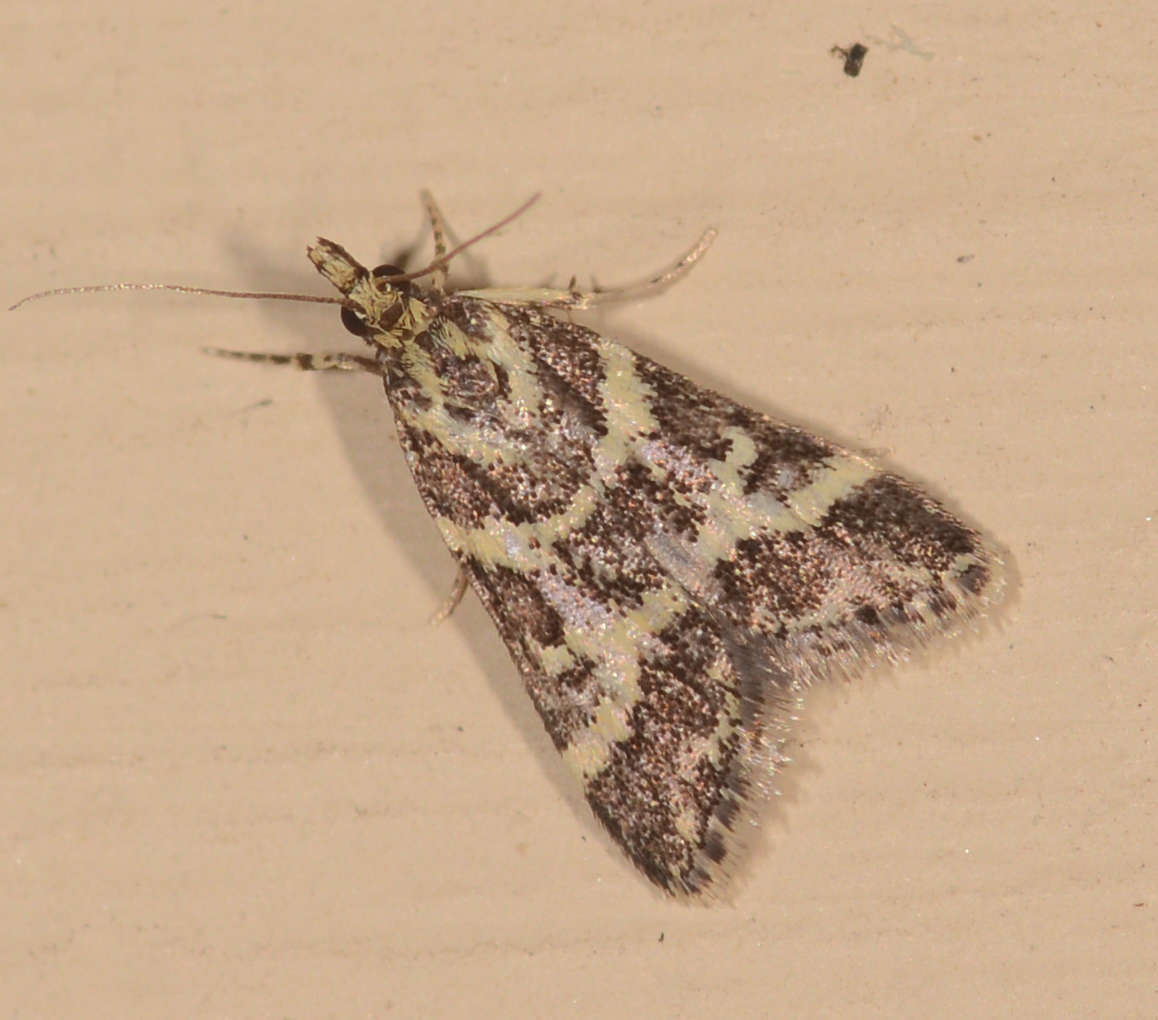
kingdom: Animalia
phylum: Arthropoda
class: Insecta
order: Lepidoptera
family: Crambidae
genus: Scoparia
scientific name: Scoparia spelaea
